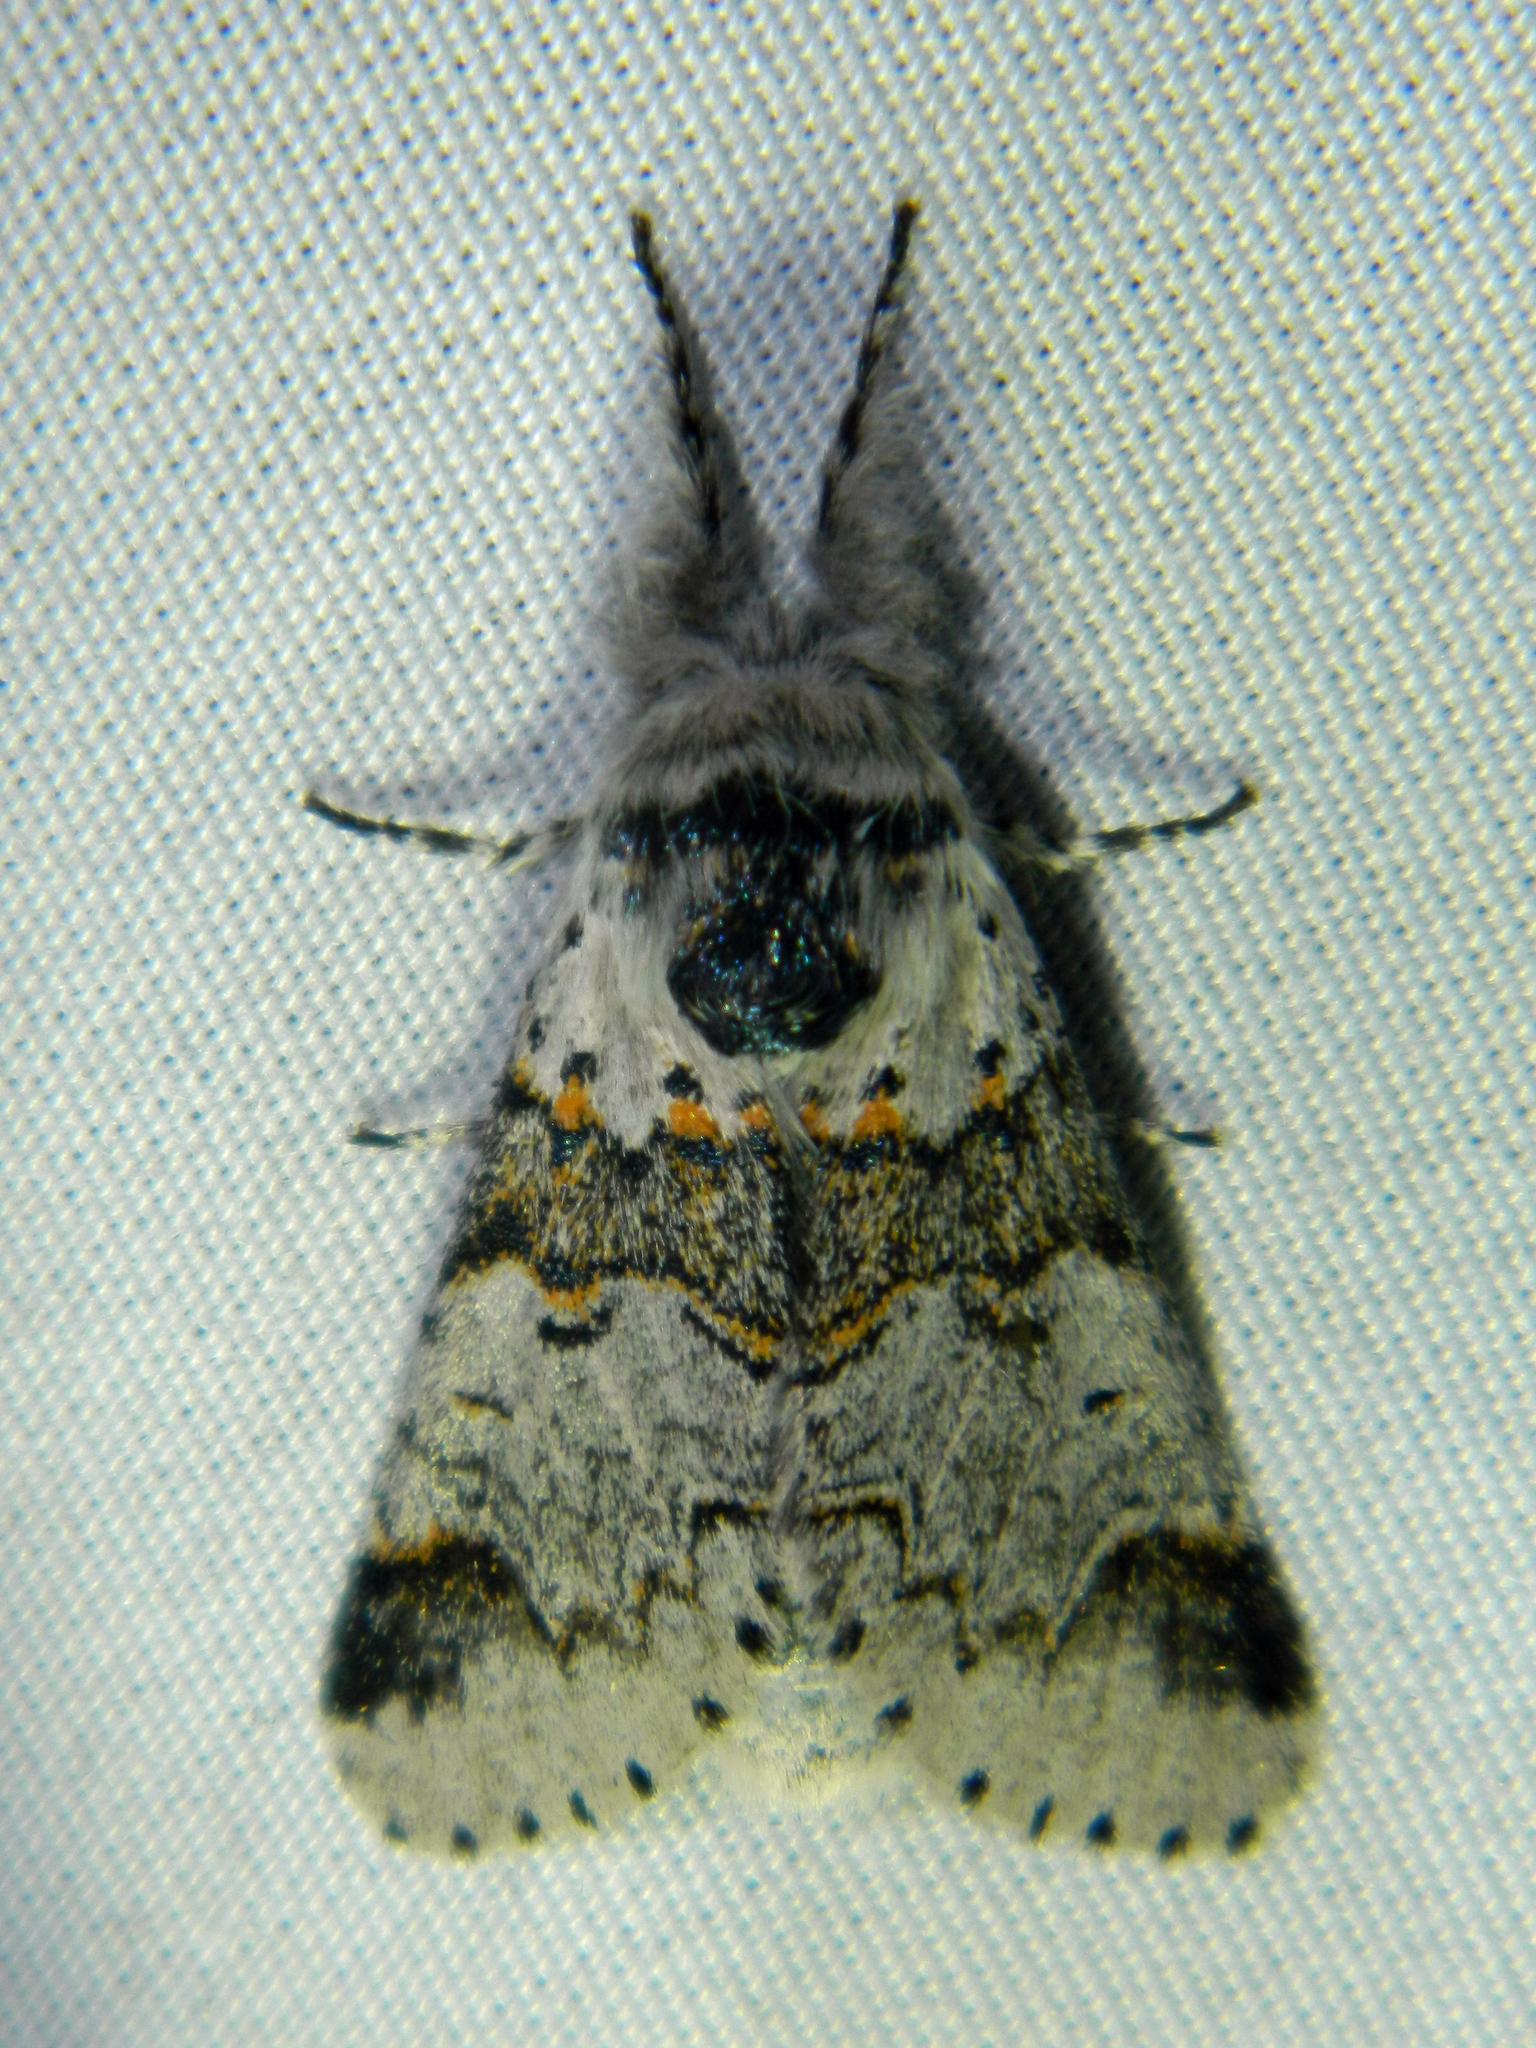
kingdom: Animalia
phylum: Arthropoda
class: Insecta
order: Lepidoptera
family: Notodontidae
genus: Furcula
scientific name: Furcula occidentalis
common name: Western furcula moth
